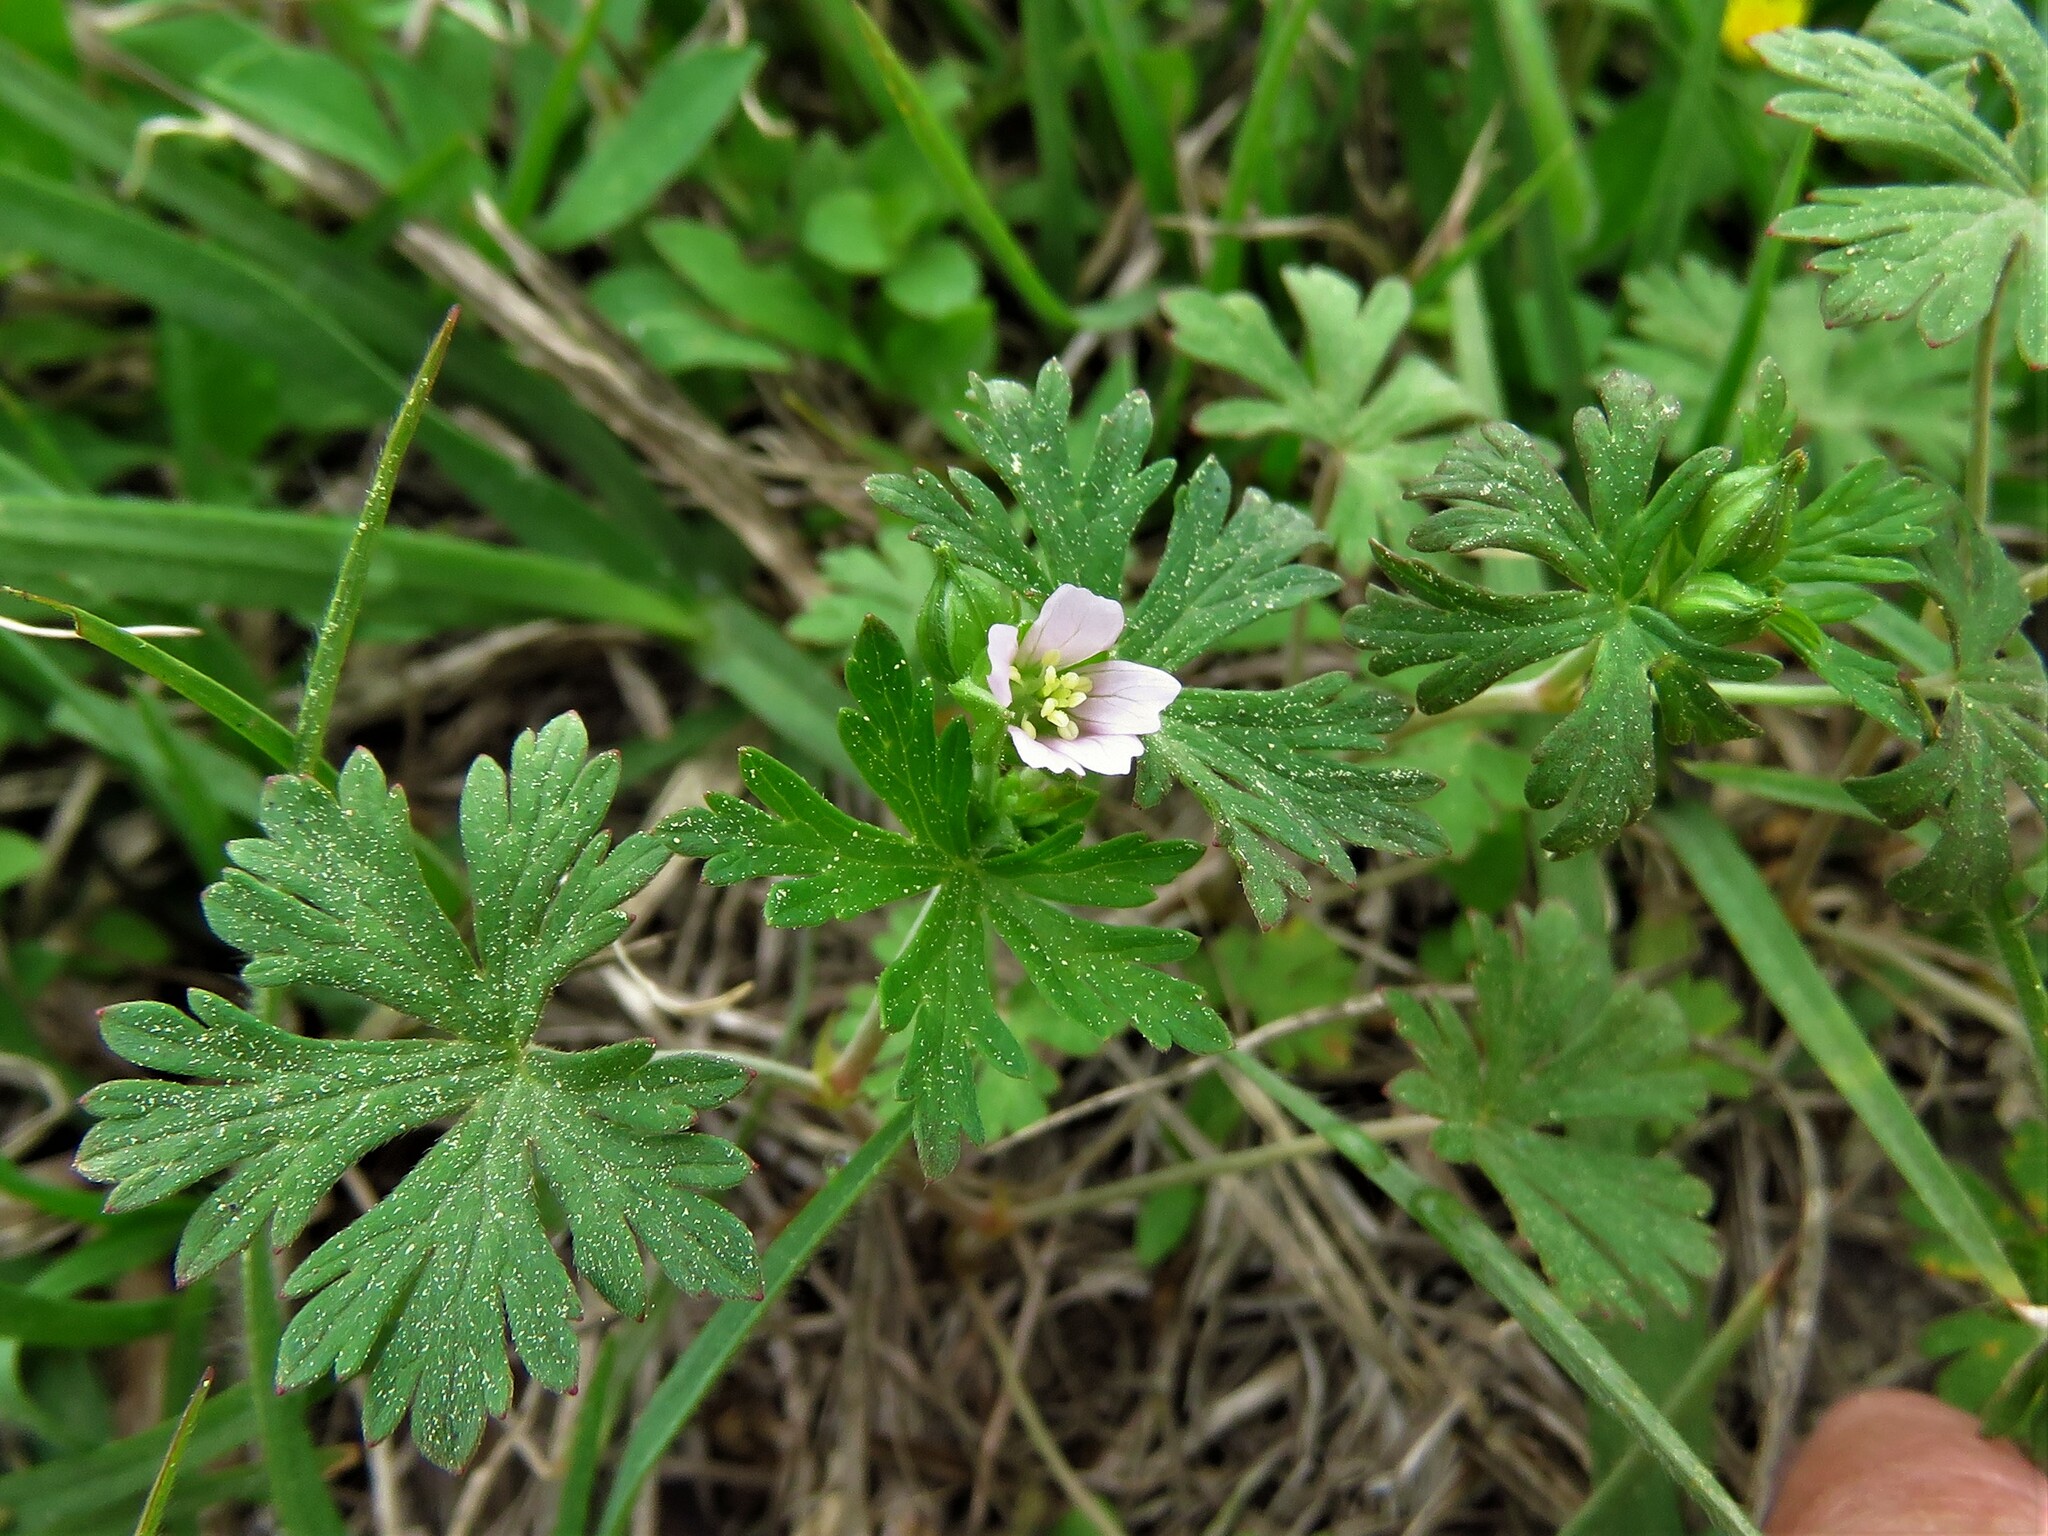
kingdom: Plantae
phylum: Tracheophyta
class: Magnoliopsida
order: Geraniales
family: Geraniaceae
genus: Geranium
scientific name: Geranium carolinianum
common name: Carolina crane's-bill
